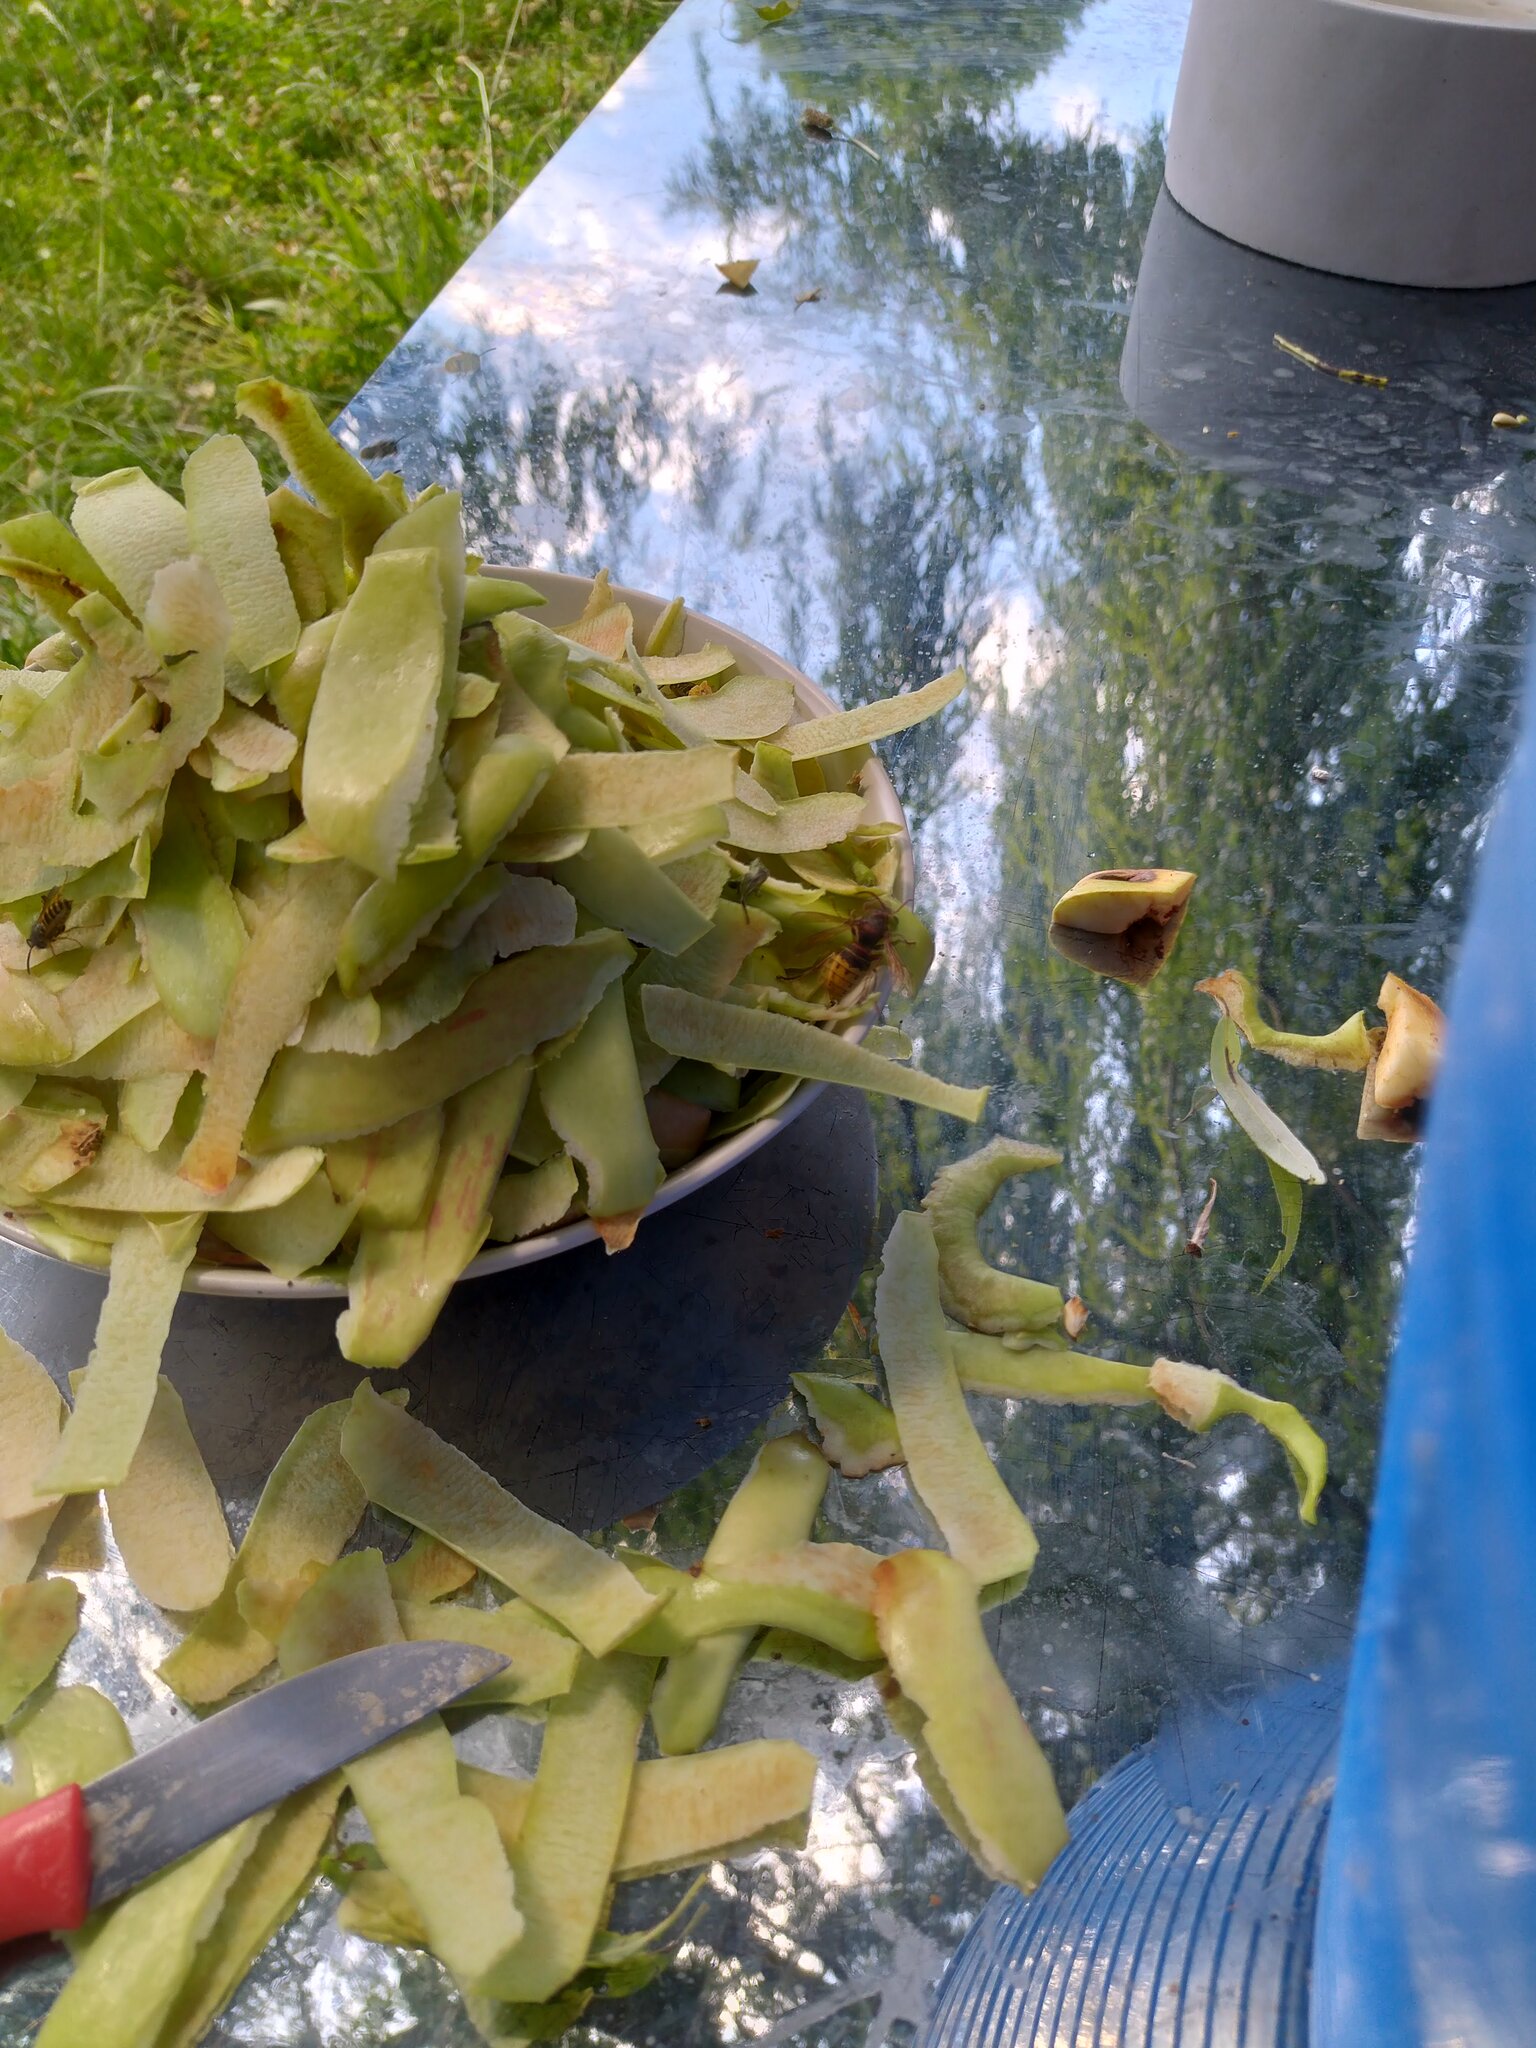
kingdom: Animalia
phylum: Arthropoda
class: Insecta
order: Hymenoptera
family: Vespidae
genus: Vespa
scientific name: Vespa crabro
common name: Hornet
